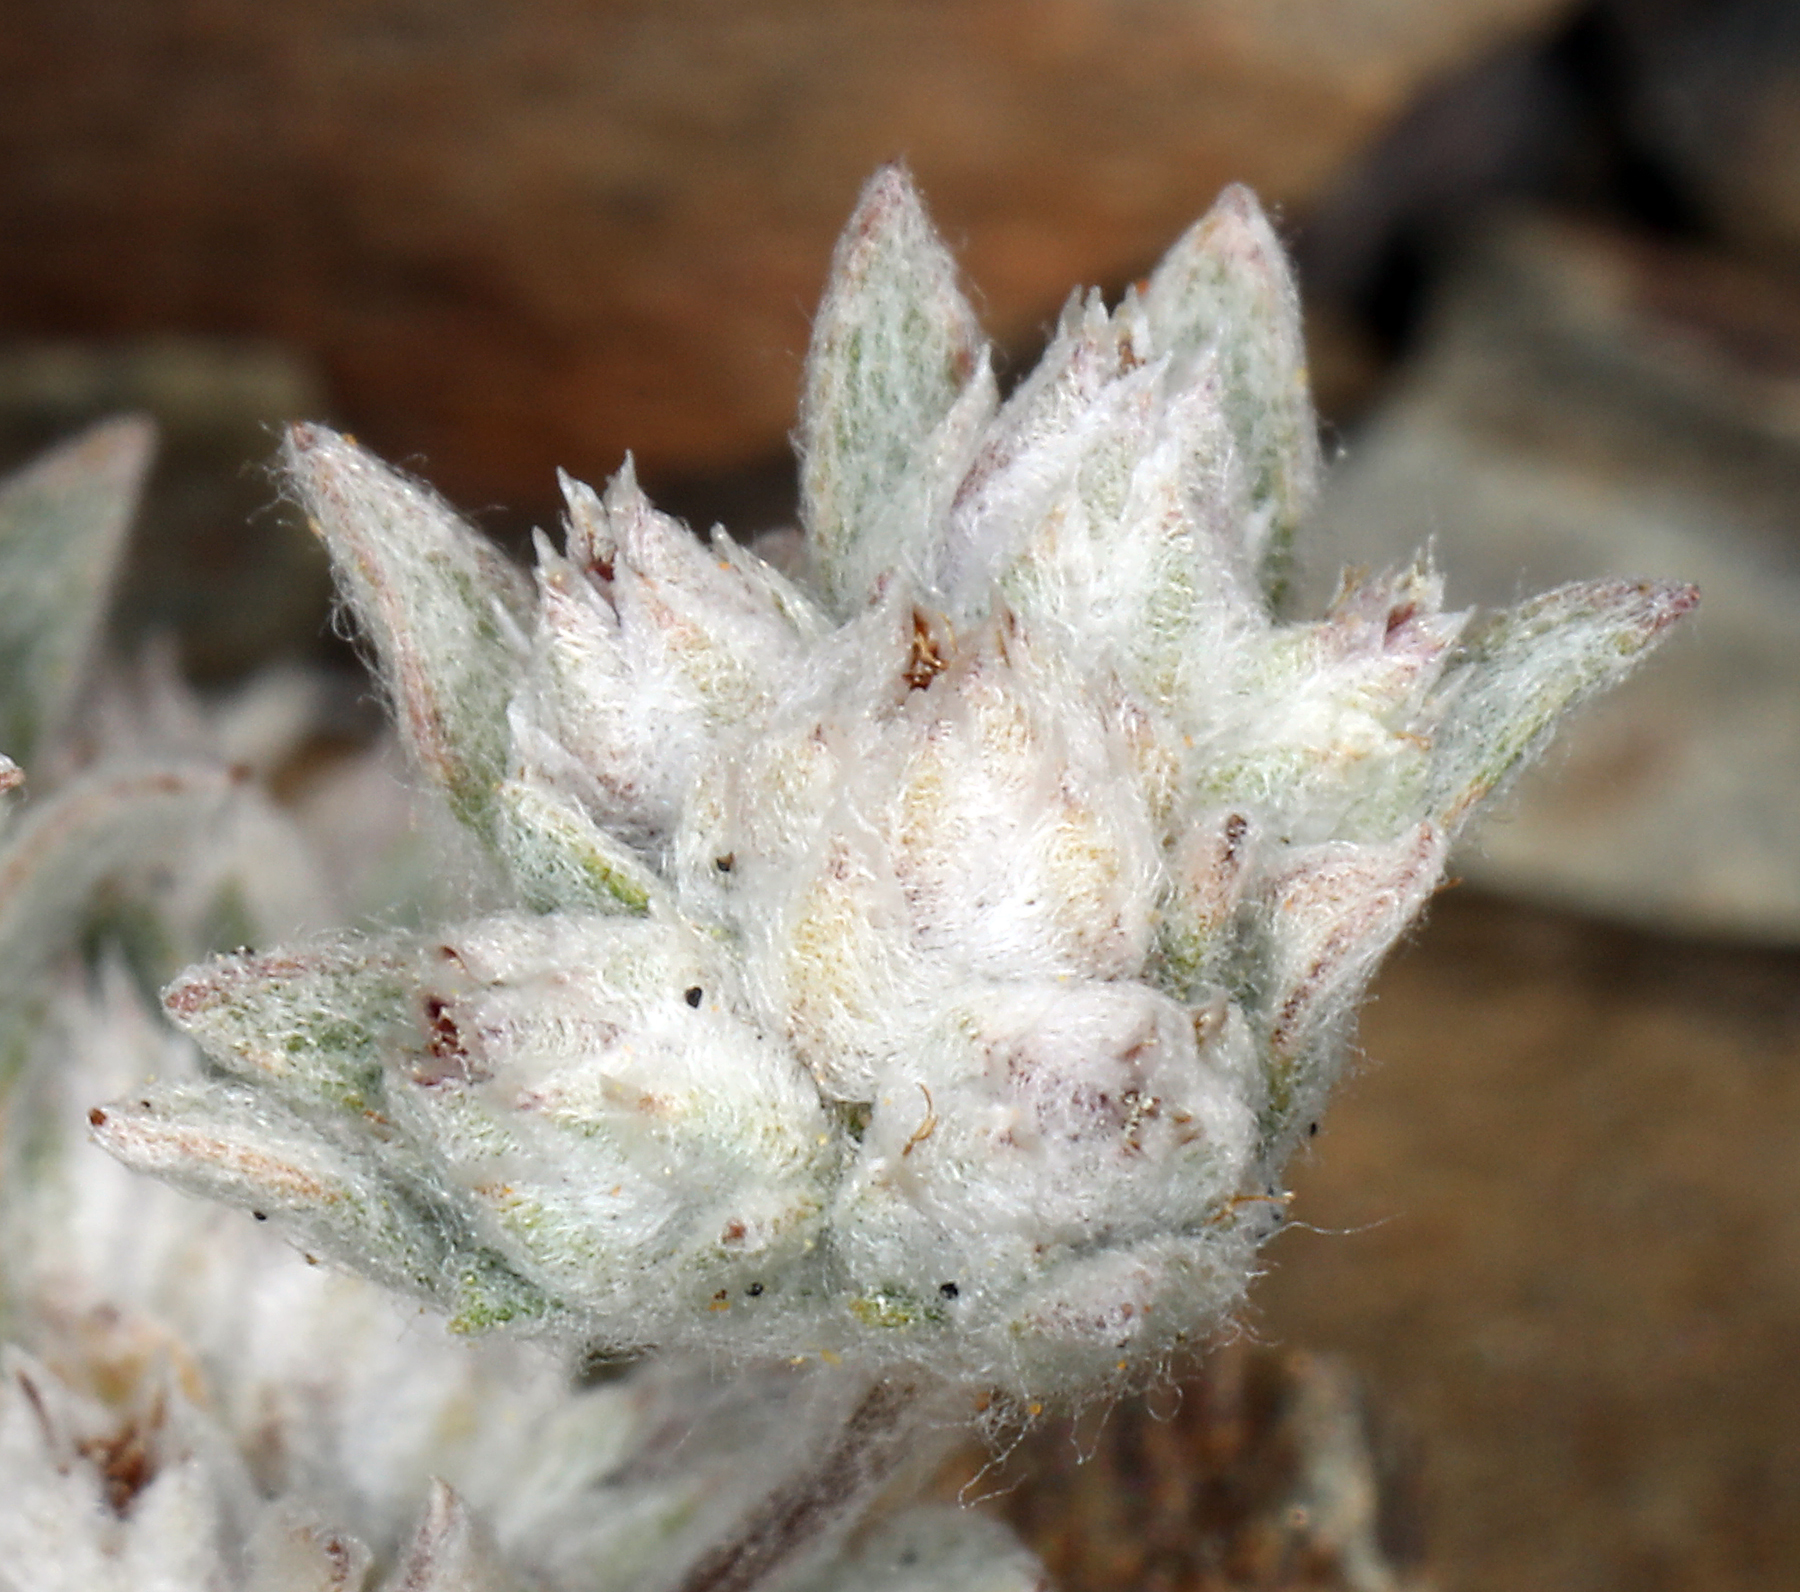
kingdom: Plantae
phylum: Tracheophyta
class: Magnoliopsida
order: Asterales
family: Asteraceae
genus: Stylocline
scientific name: Stylocline psilocarphoides
